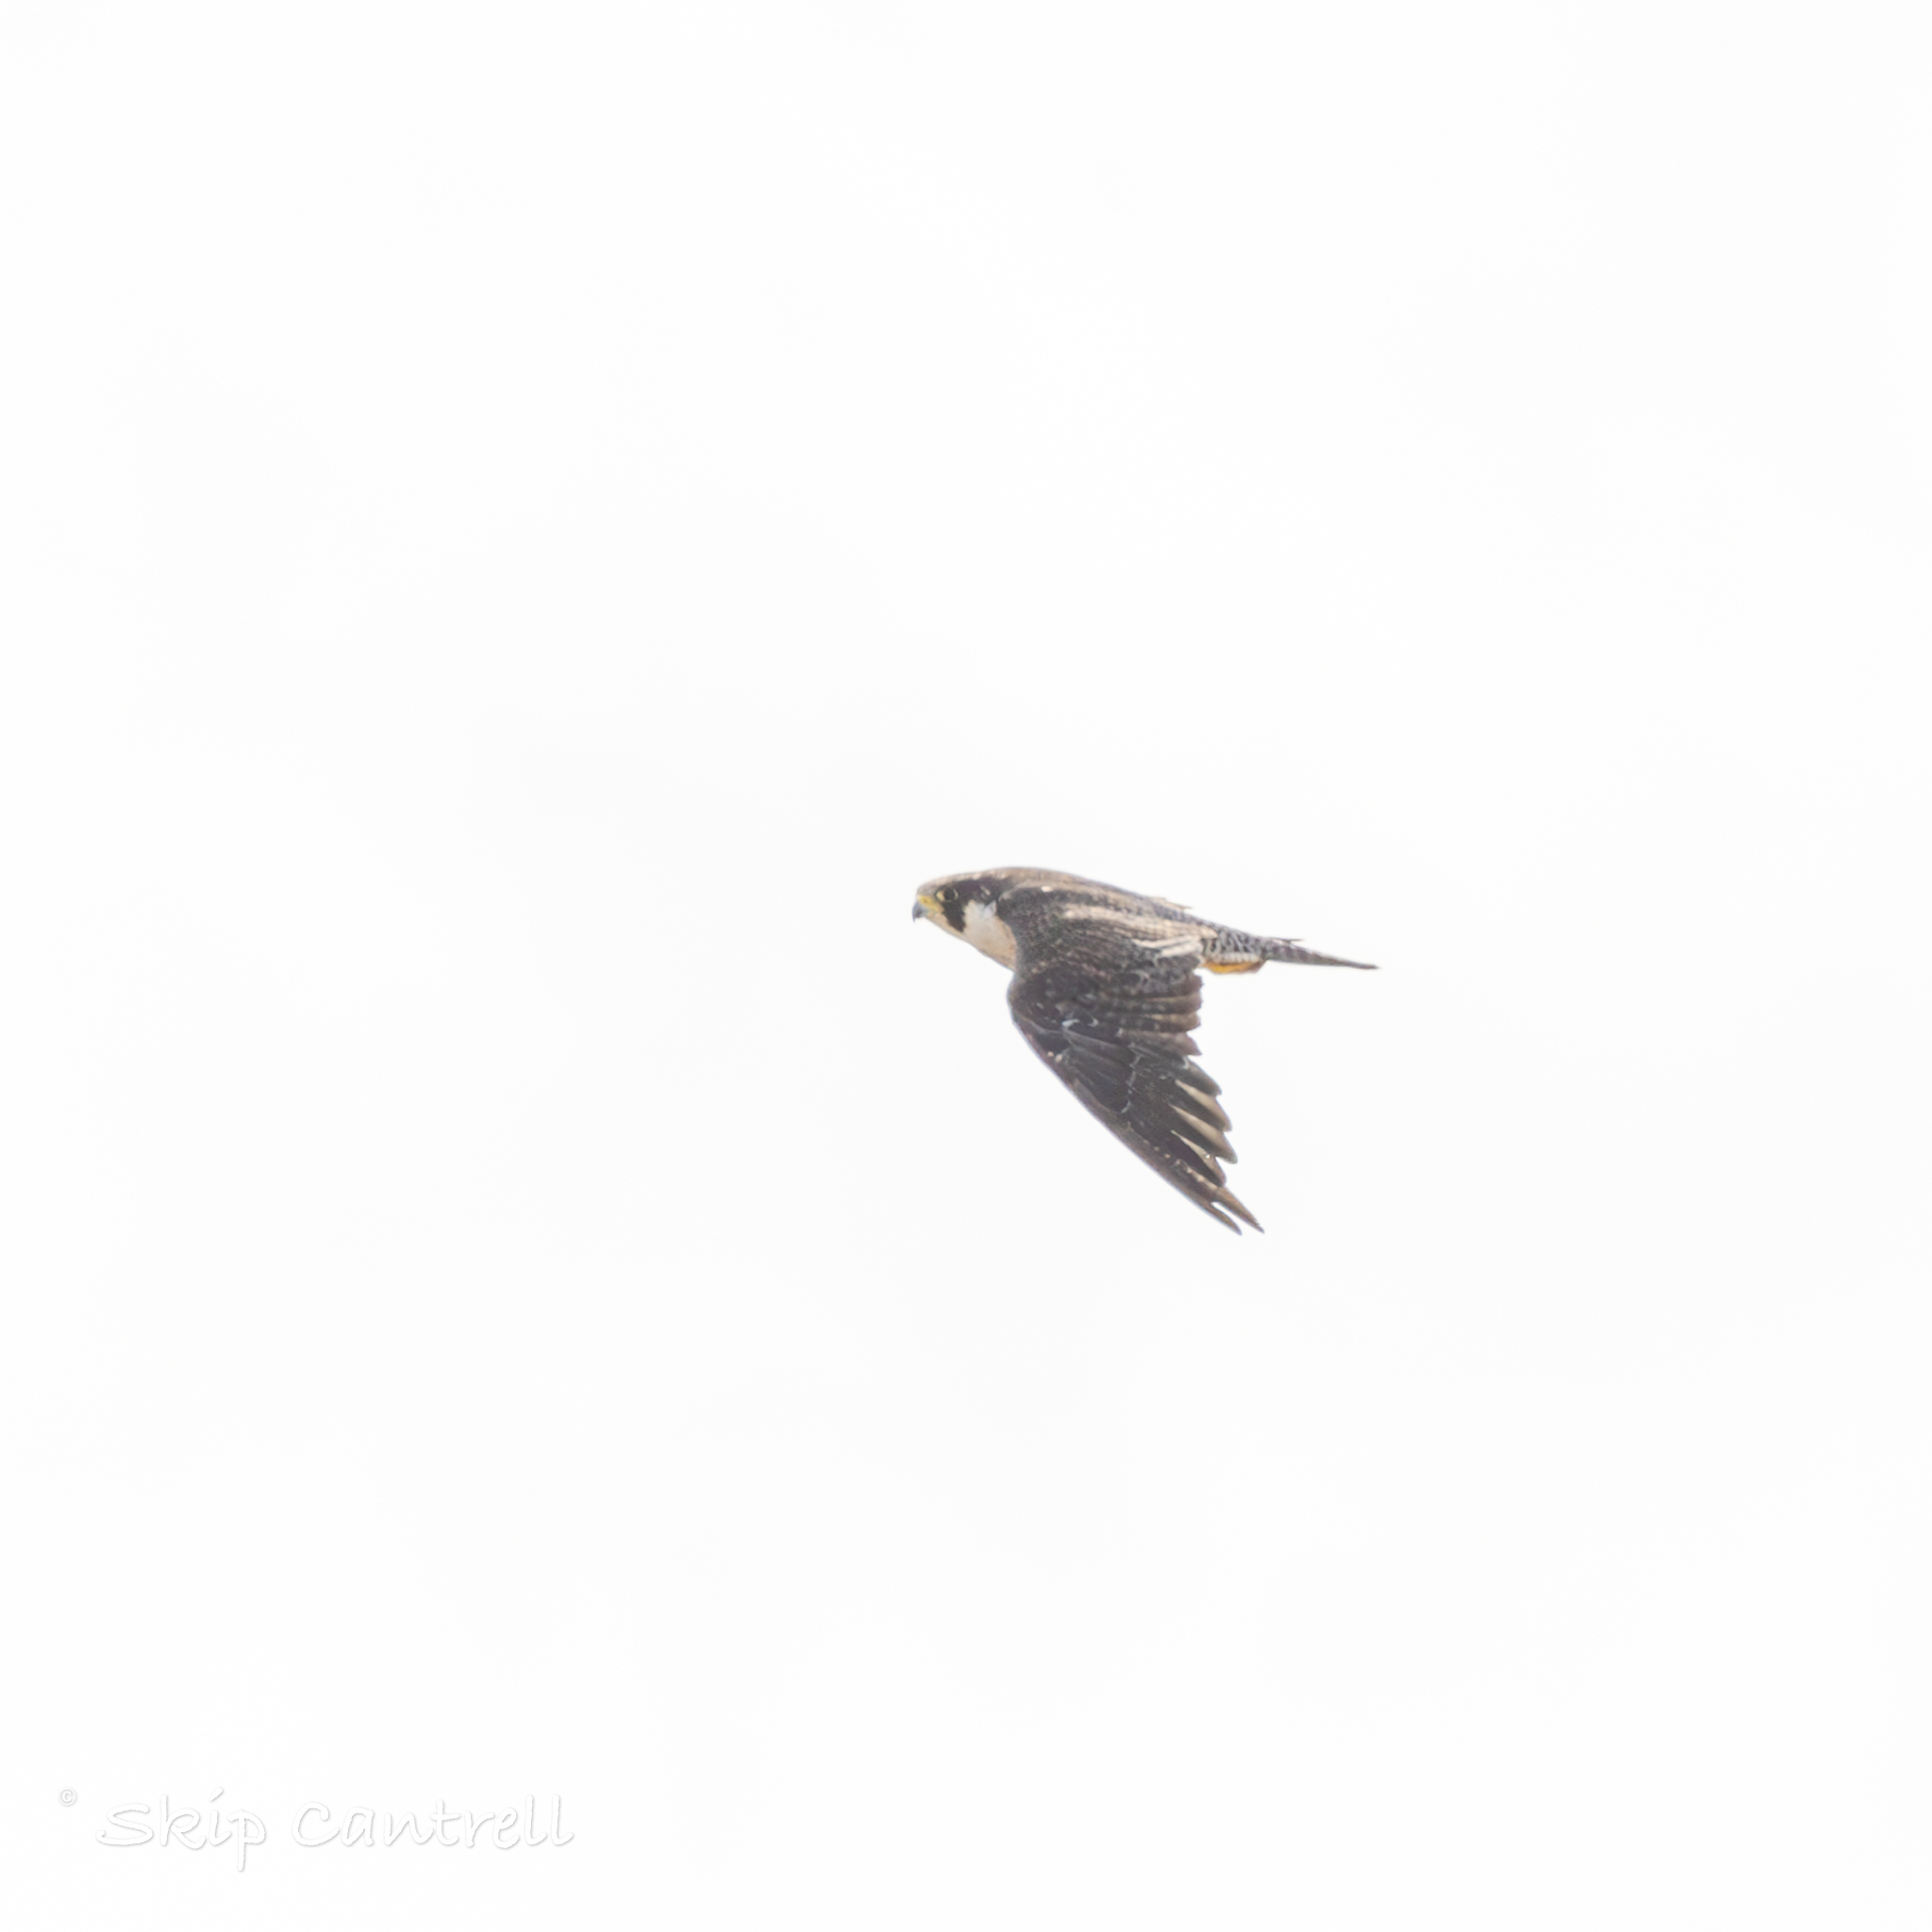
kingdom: Animalia
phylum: Chordata
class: Aves
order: Falconiformes
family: Falconidae
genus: Falco
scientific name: Falco peregrinus
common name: Peregrine falcon
